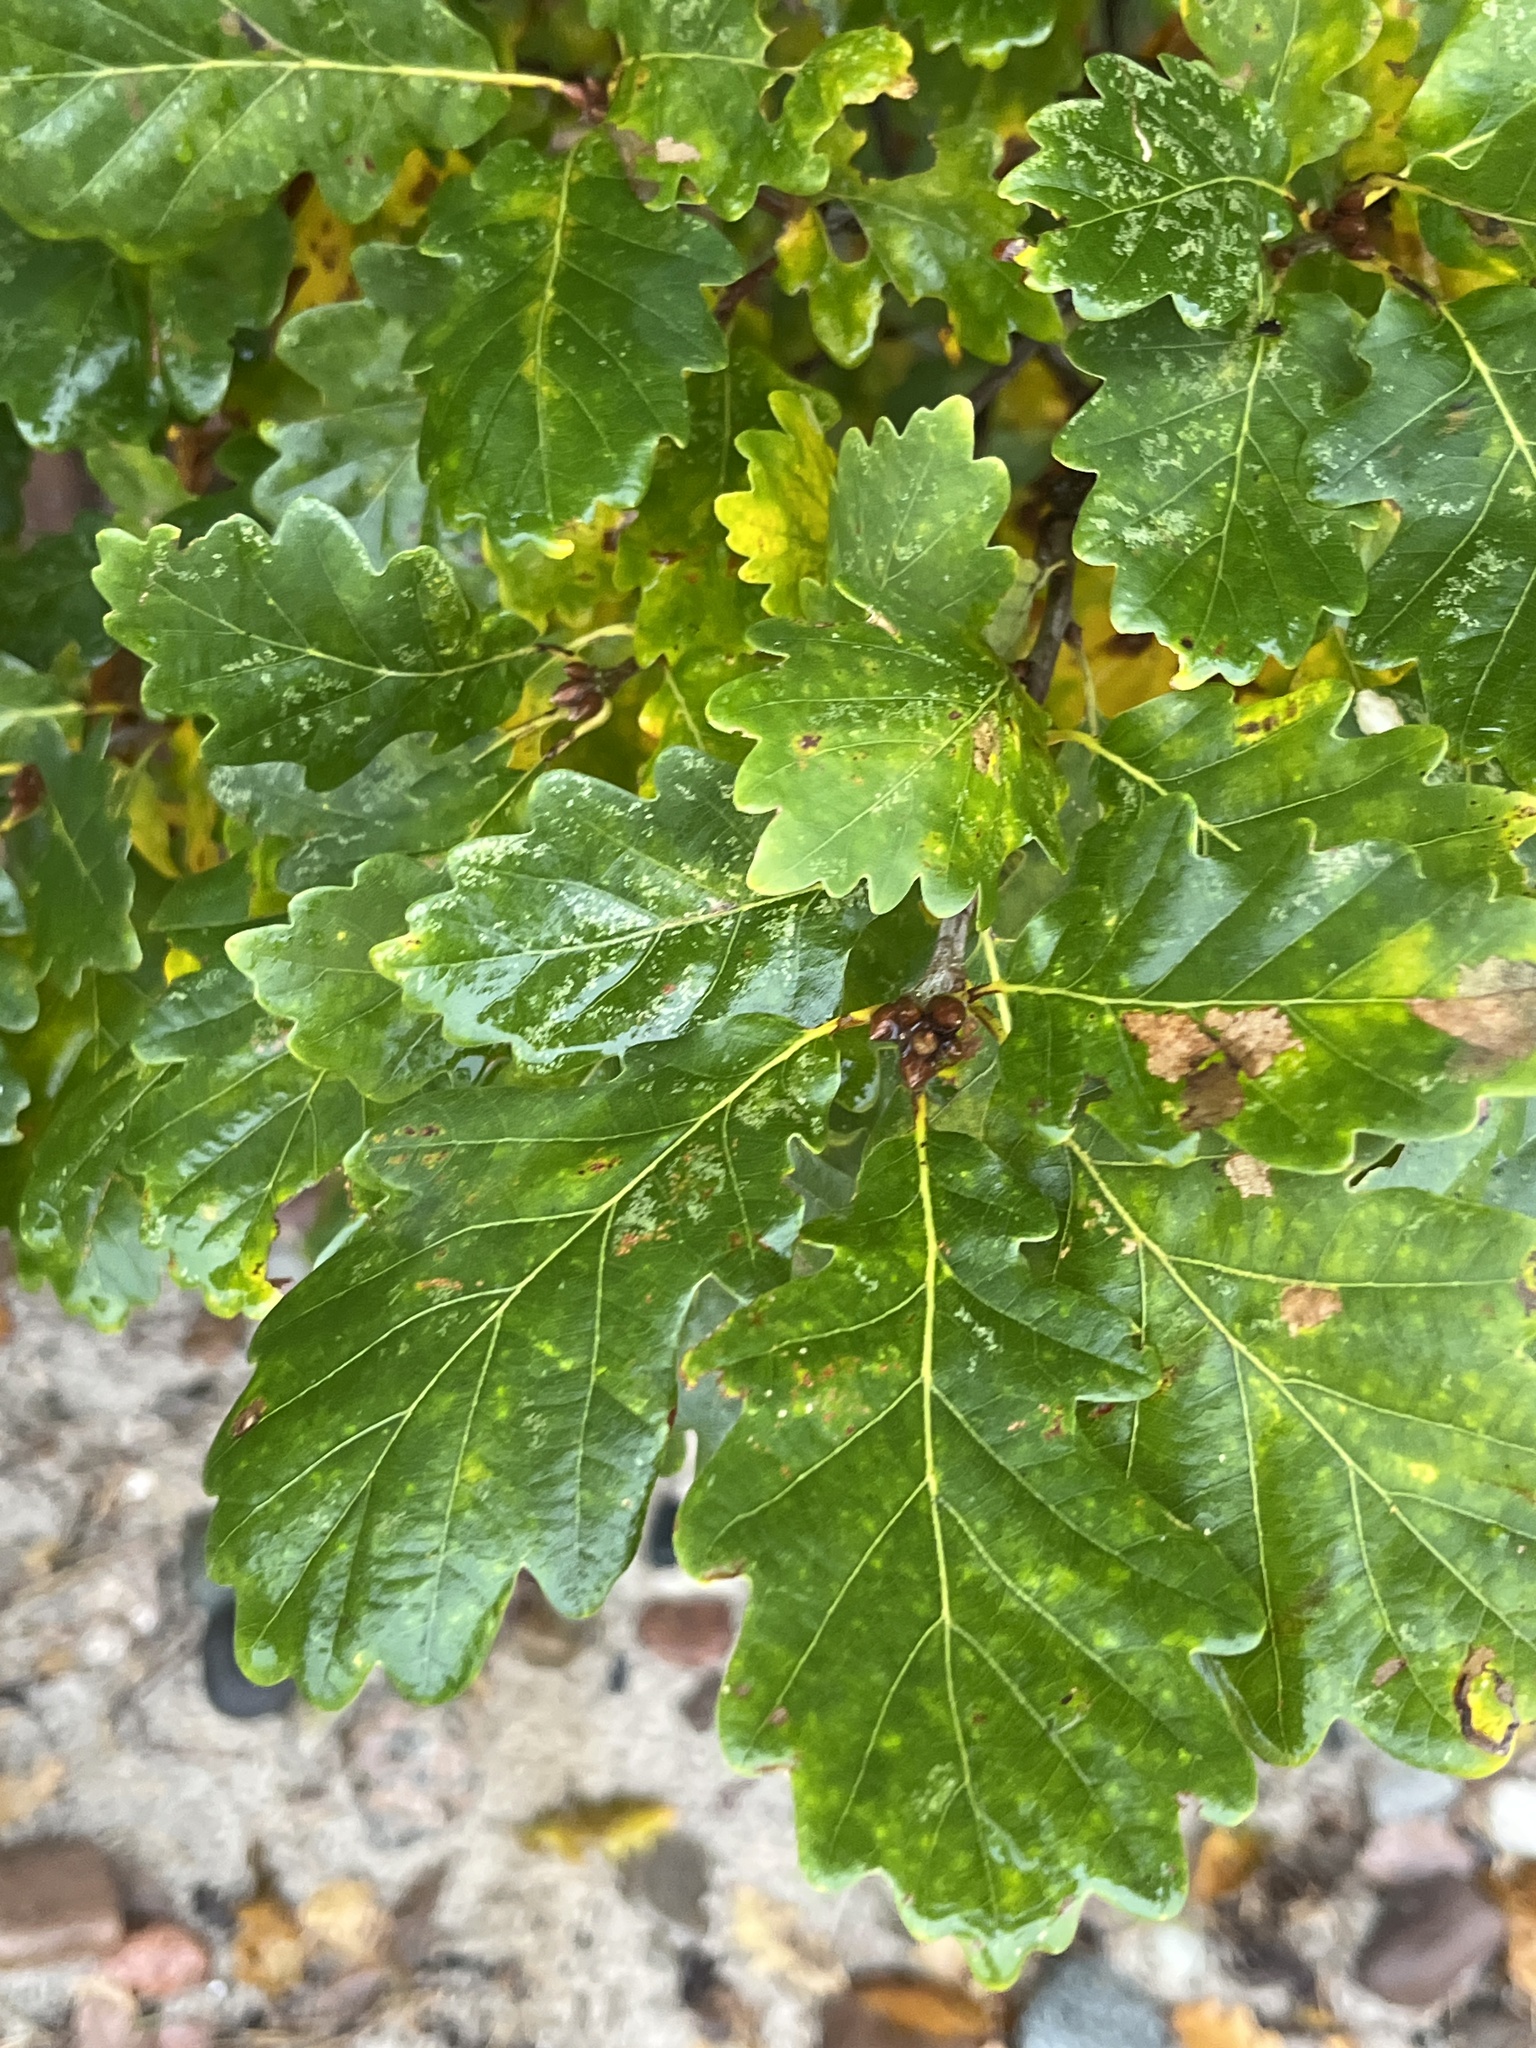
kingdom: Plantae
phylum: Tracheophyta
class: Magnoliopsida
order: Fagales
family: Fagaceae
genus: Quercus
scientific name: Quercus petraea
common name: Sessile oak
